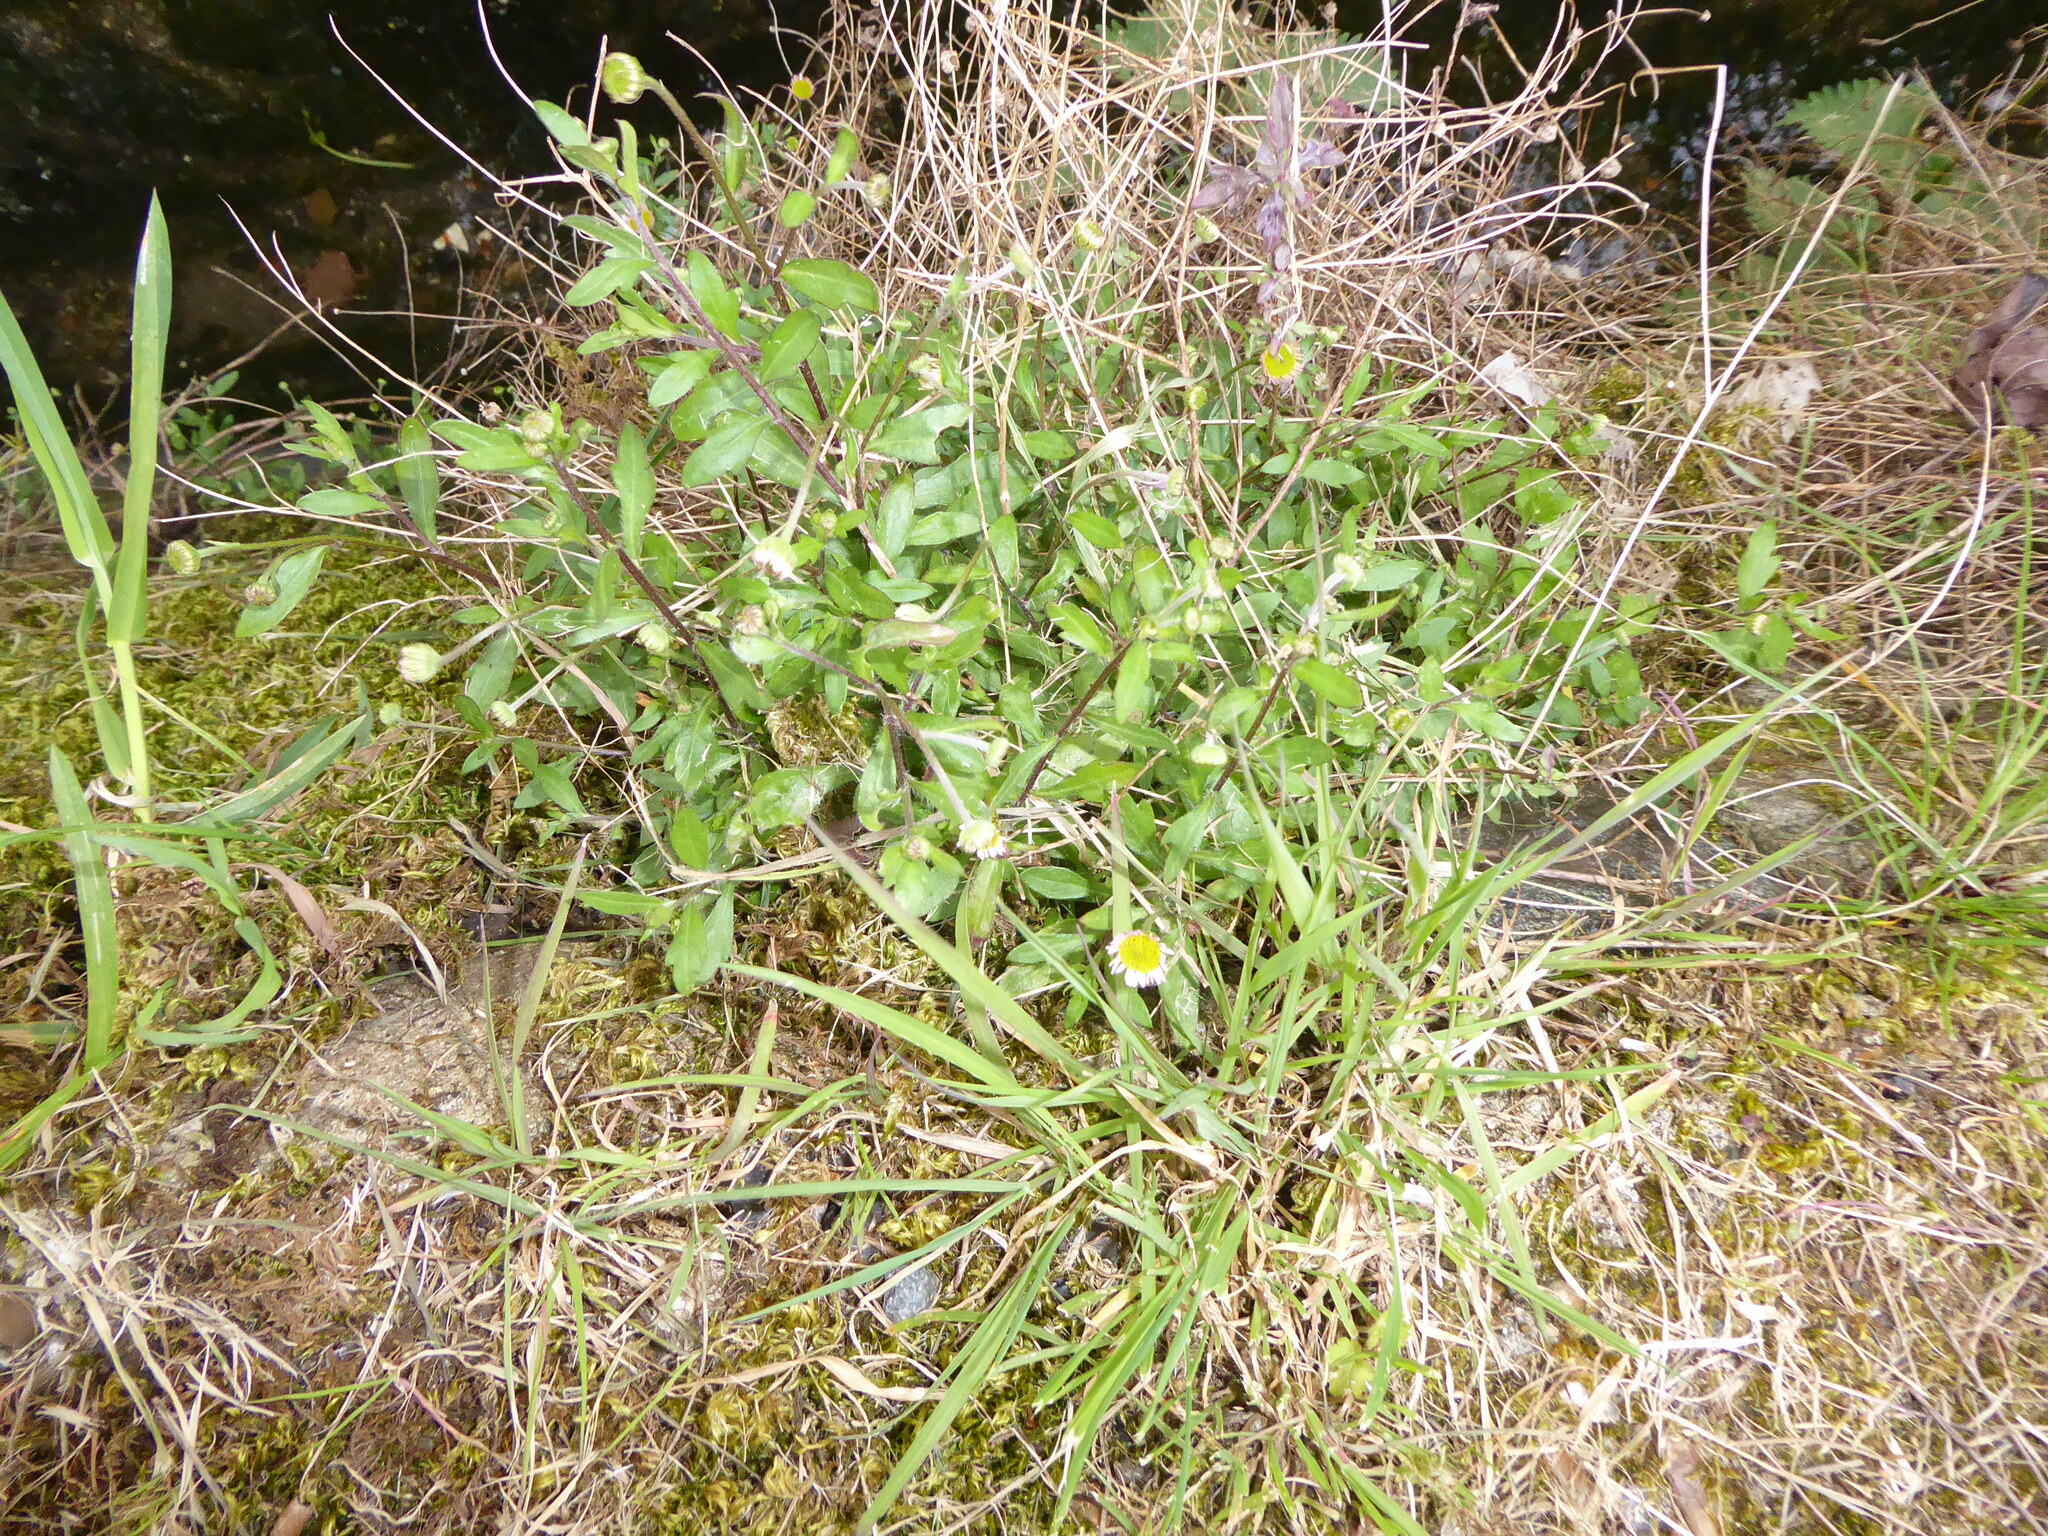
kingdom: Plantae
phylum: Tracheophyta
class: Magnoliopsida
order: Asterales
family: Asteraceae
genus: Erigeron
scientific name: Erigeron karvinskianus
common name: Mexican fleabane
